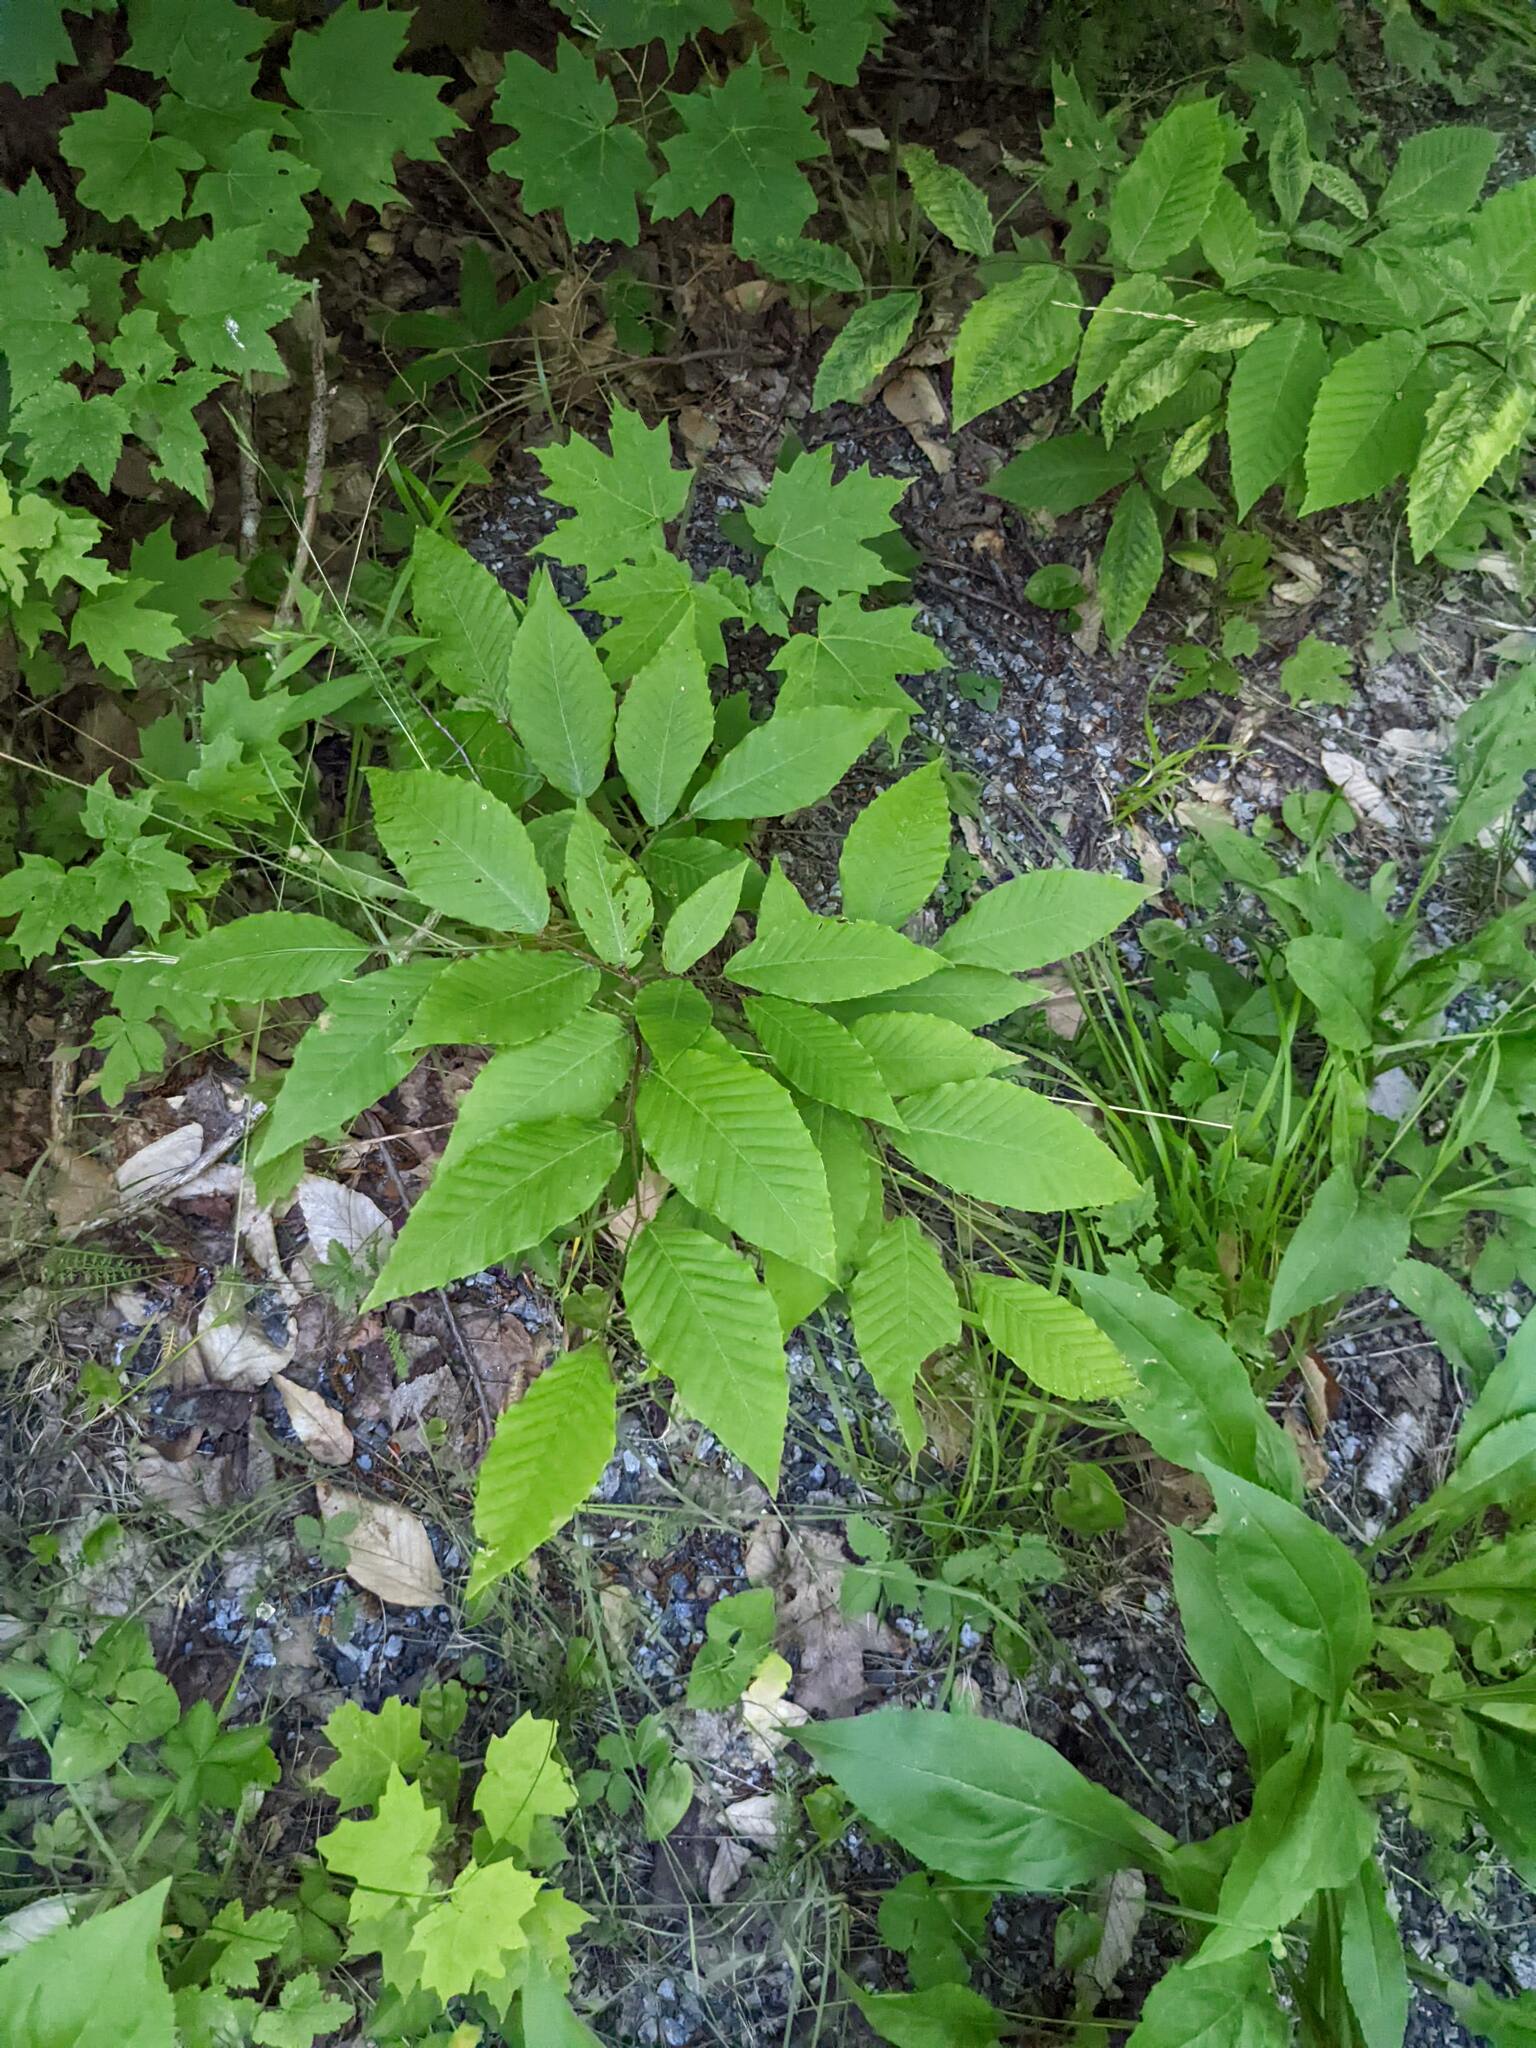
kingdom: Plantae
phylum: Tracheophyta
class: Magnoliopsida
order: Fagales
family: Fagaceae
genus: Fagus
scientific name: Fagus grandifolia
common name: American beech
